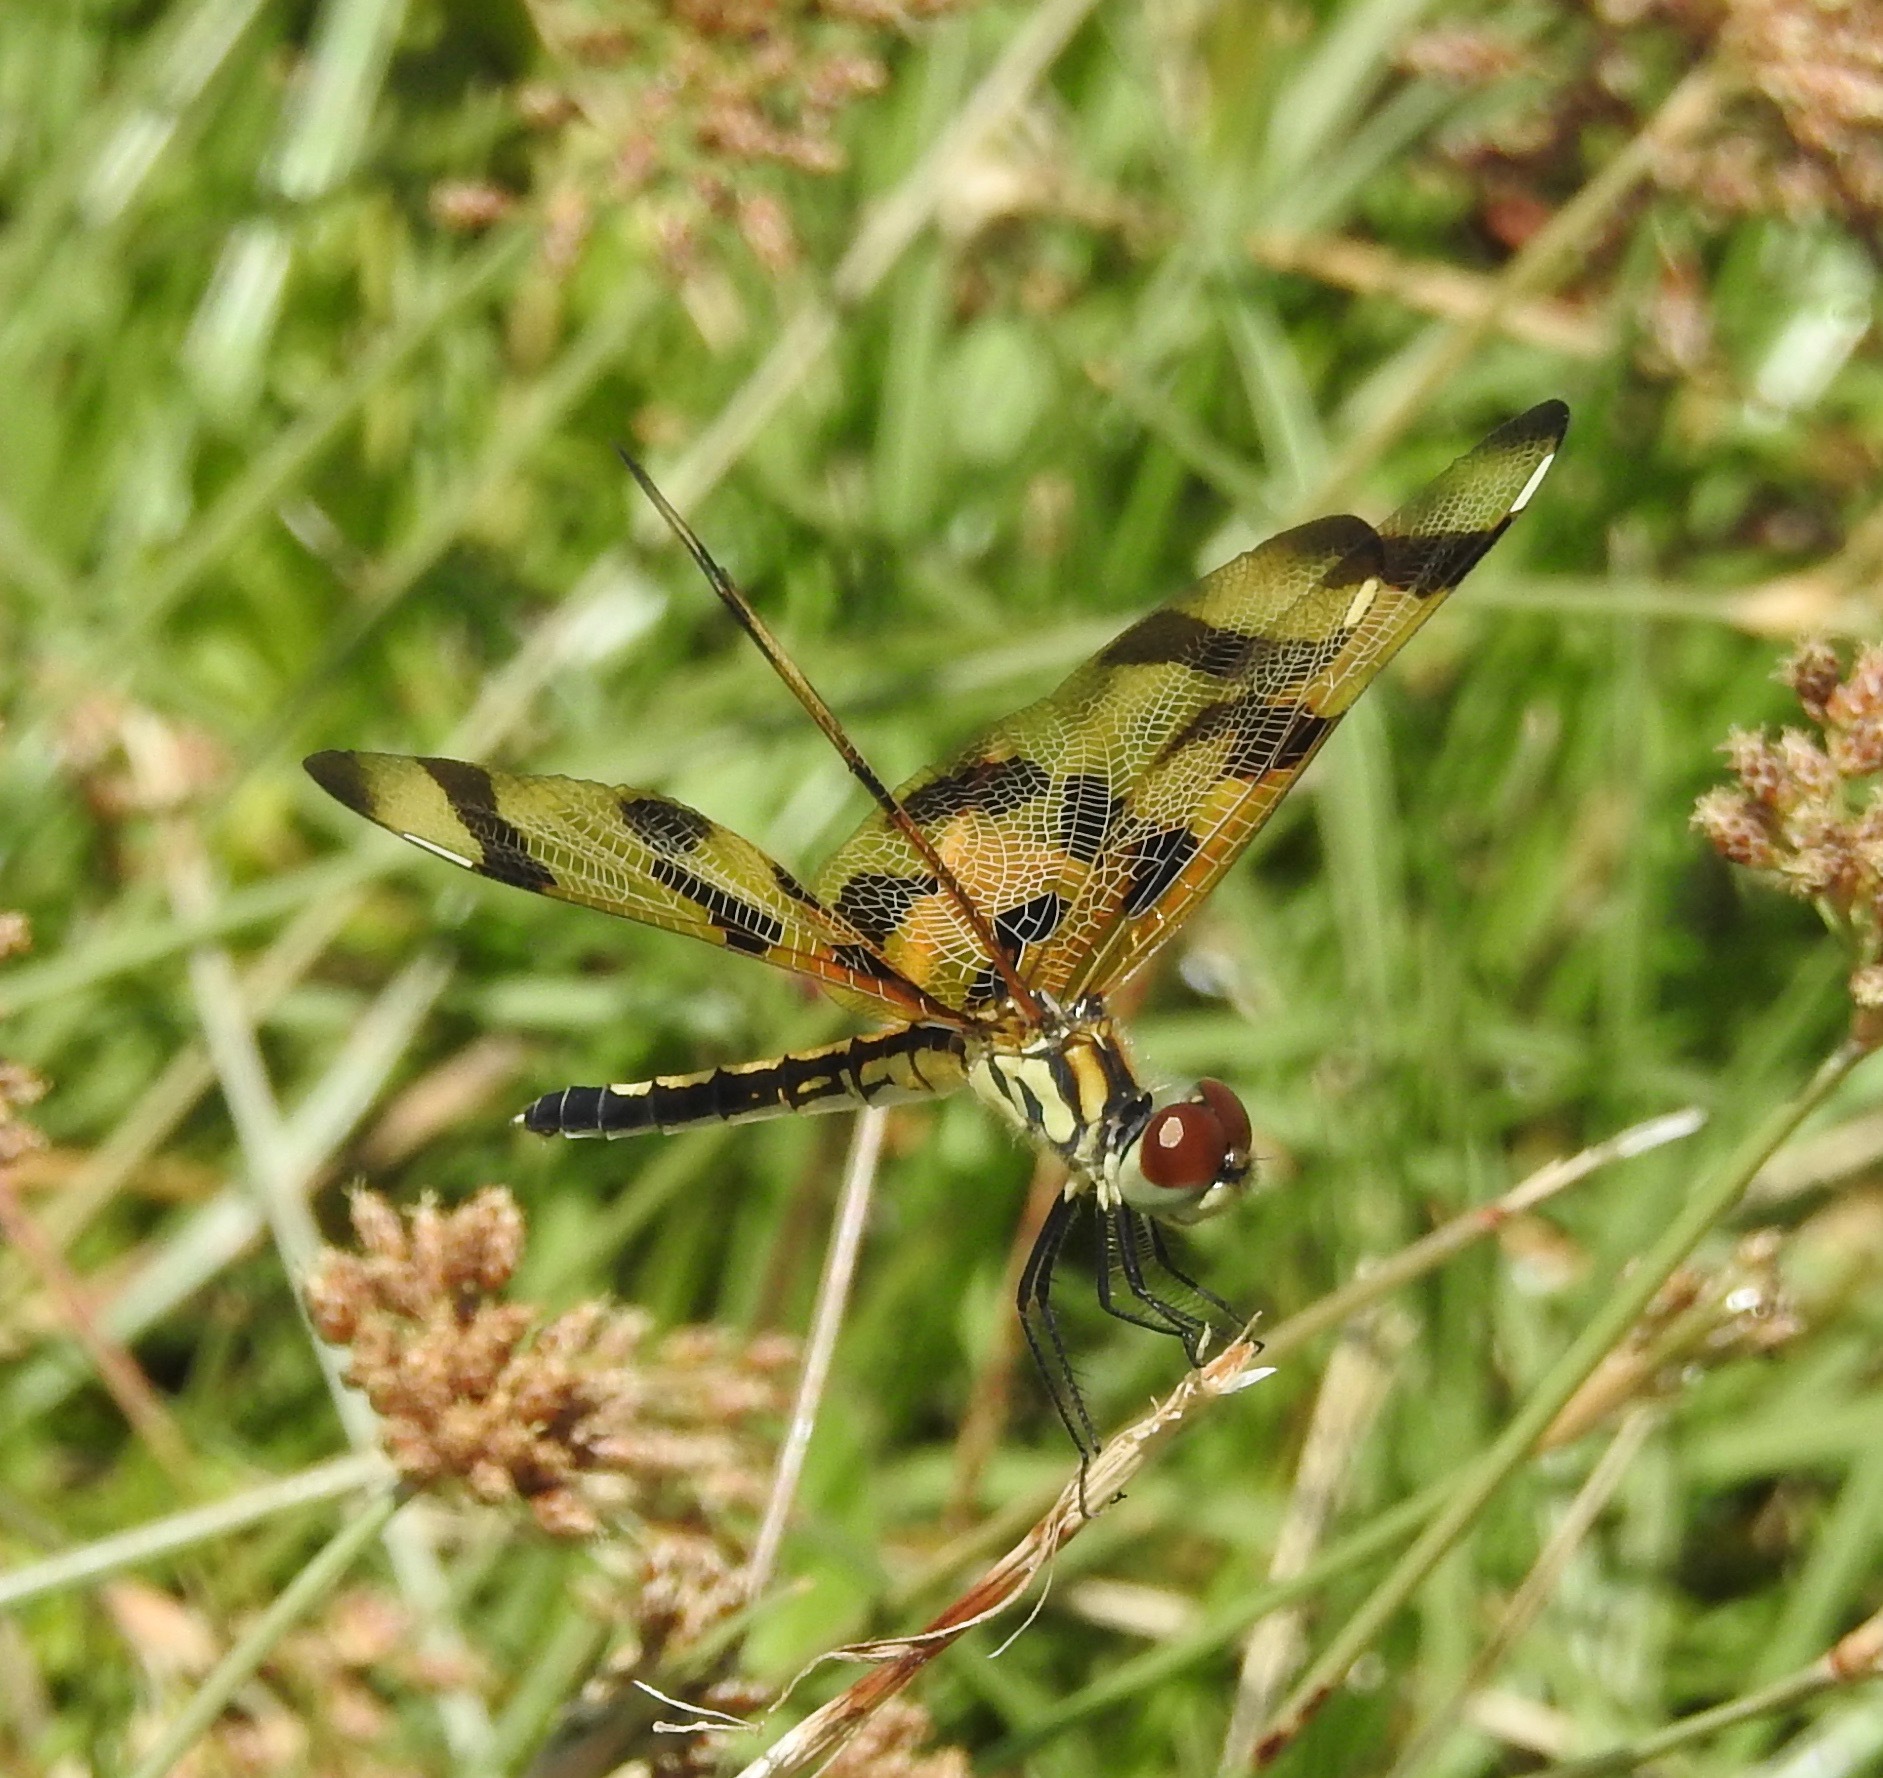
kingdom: Animalia
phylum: Arthropoda
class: Insecta
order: Odonata
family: Libellulidae
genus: Celithemis
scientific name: Celithemis eponina
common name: Halloween pennant
